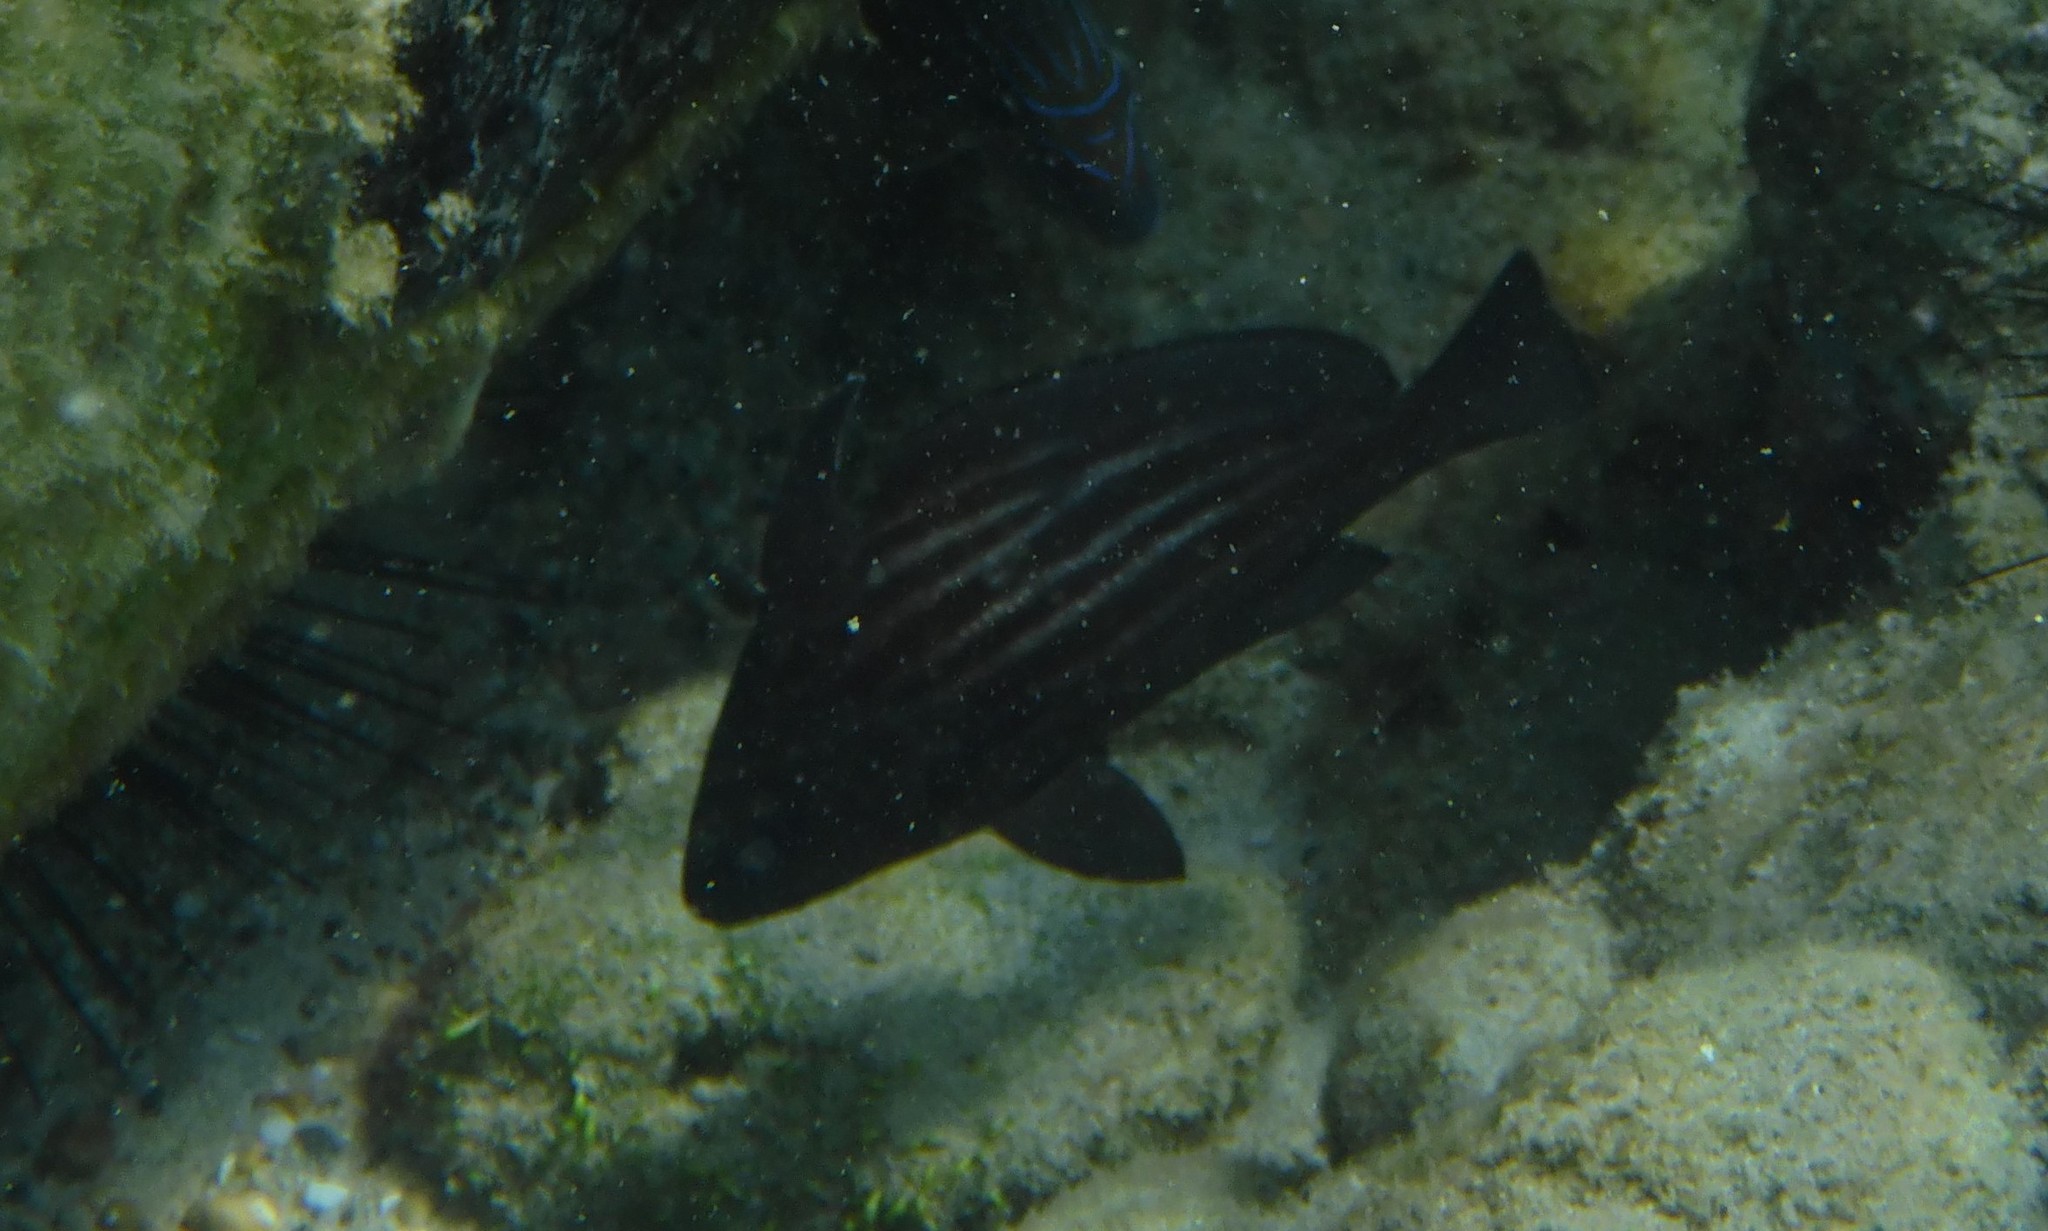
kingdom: Animalia
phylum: Chordata
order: Perciformes
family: Sciaenidae
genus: Pareques
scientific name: Pareques acuminatus
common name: High-hat
